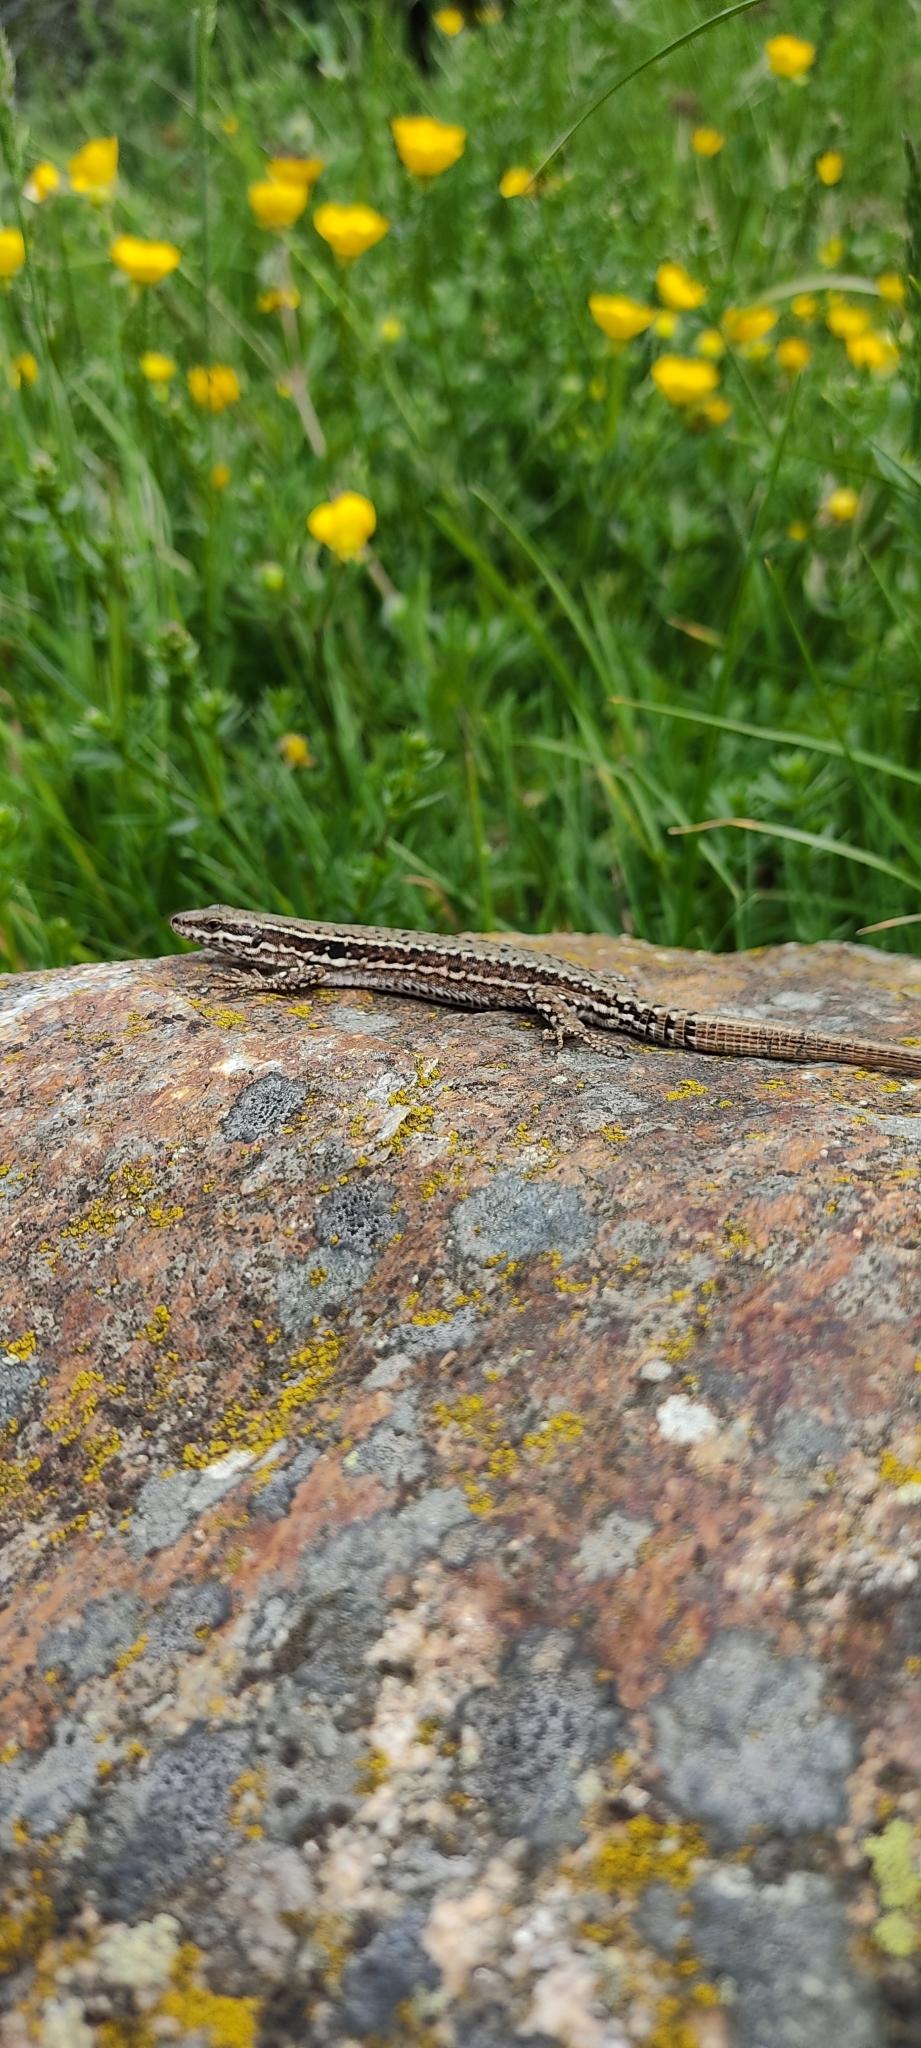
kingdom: Animalia
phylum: Chordata
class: Squamata
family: Lacertidae
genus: Podarcis
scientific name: Podarcis muralis
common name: Common wall lizard
